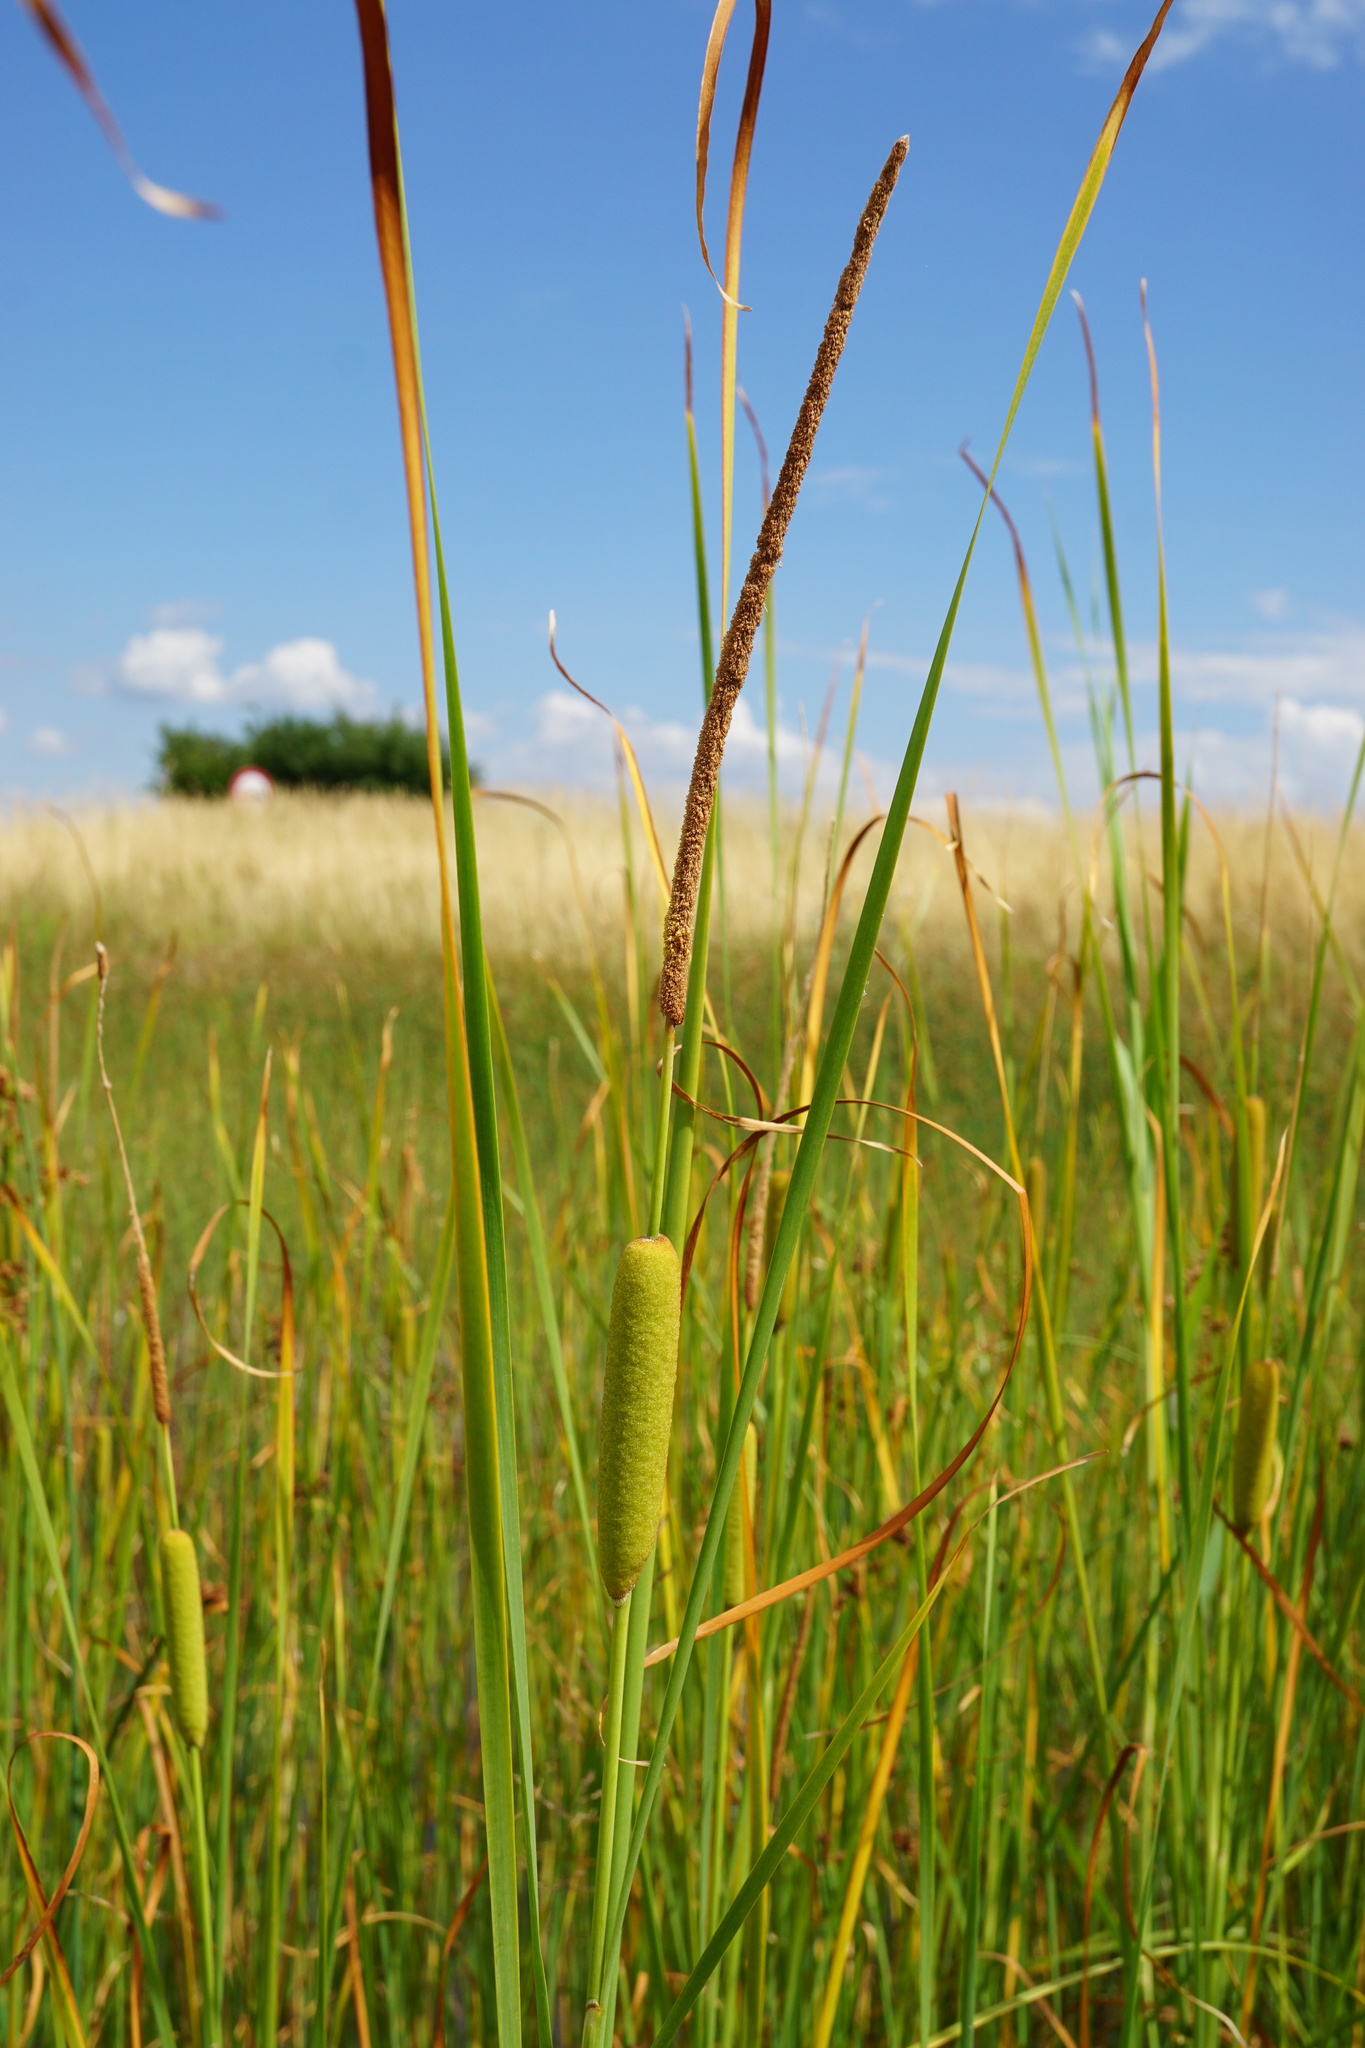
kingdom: Plantae
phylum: Tracheophyta
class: Liliopsida
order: Poales
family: Typhaceae
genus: Typha
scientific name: Typha laxmannii
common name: Laxman’s bulrush
